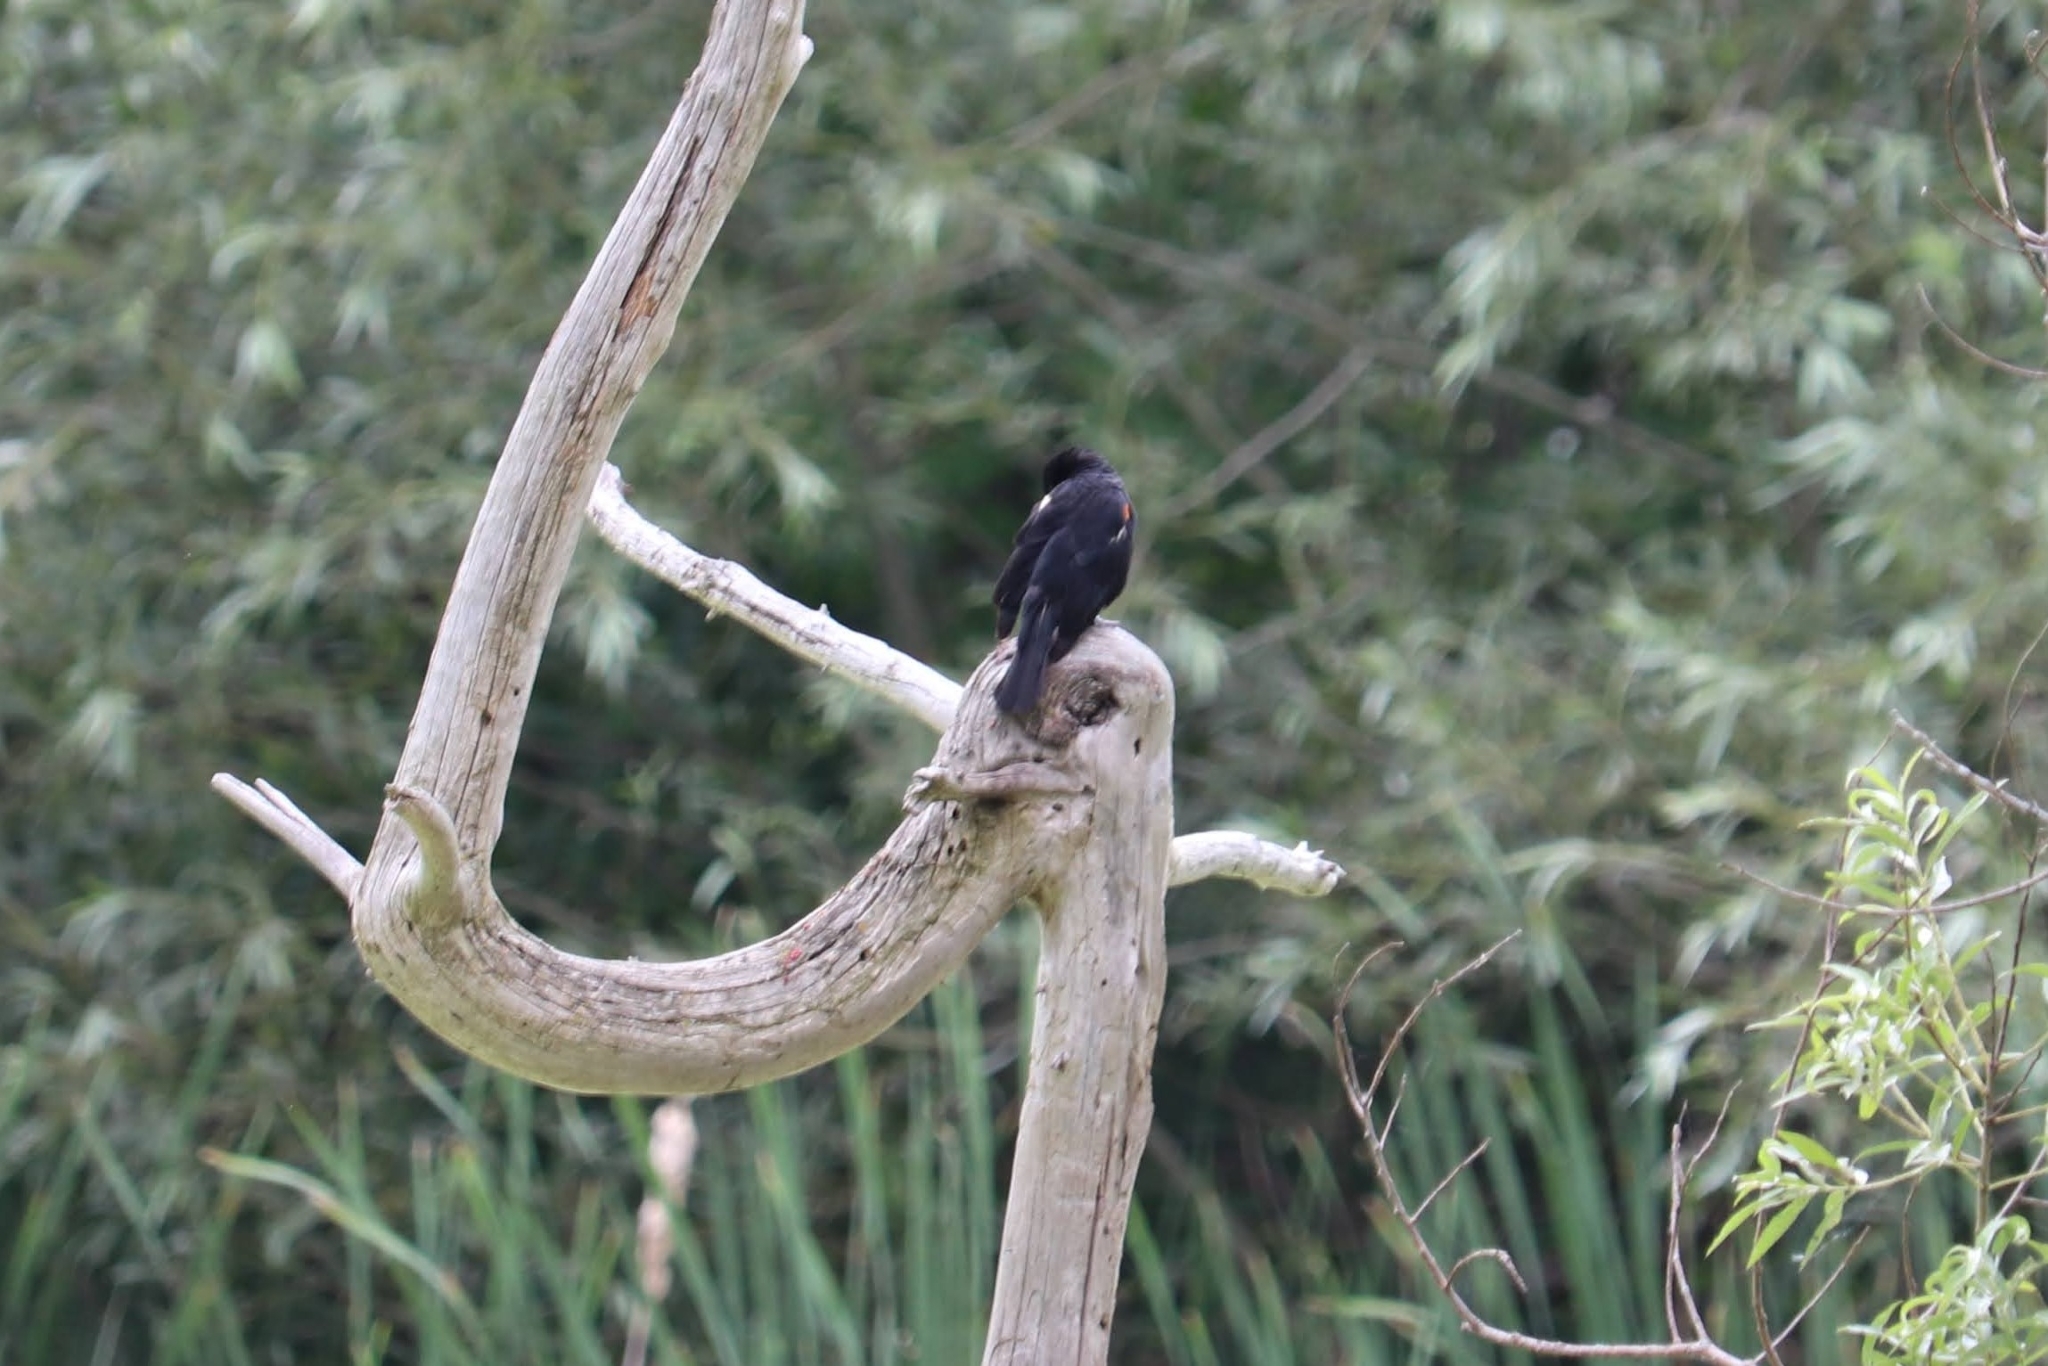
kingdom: Animalia
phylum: Chordata
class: Aves
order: Passeriformes
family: Icteridae
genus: Agelaius
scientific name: Agelaius phoeniceus
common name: Red-winged blackbird
